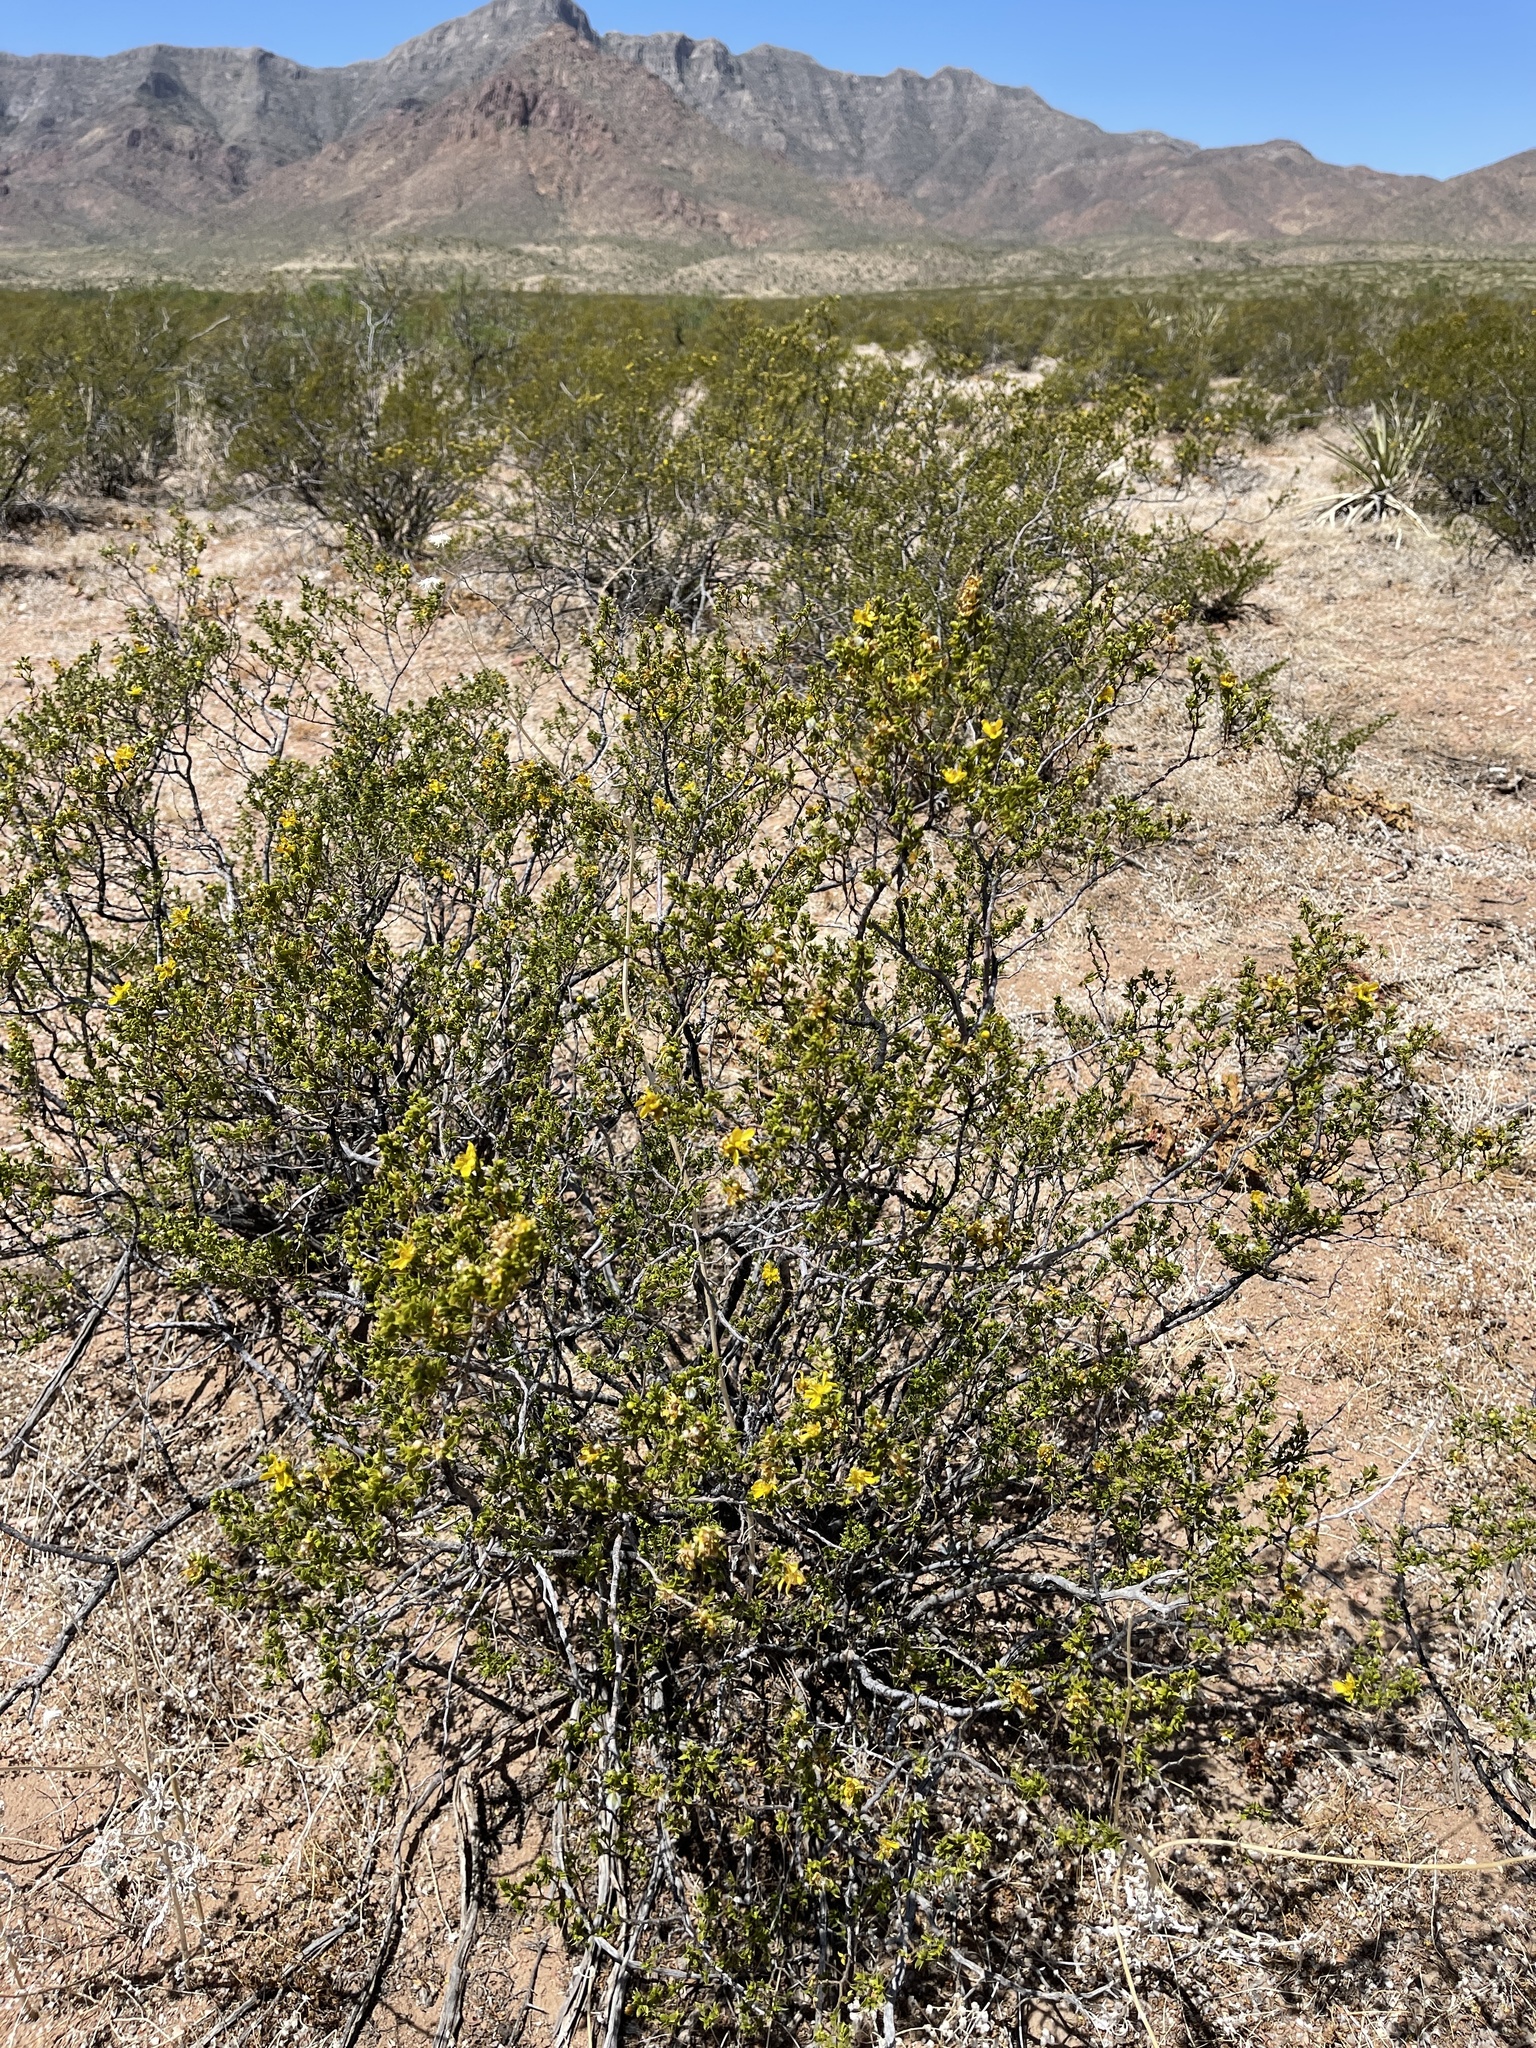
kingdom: Plantae
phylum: Tracheophyta
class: Magnoliopsida
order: Zygophyllales
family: Zygophyllaceae
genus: Larrea
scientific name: Larrea tridentata
